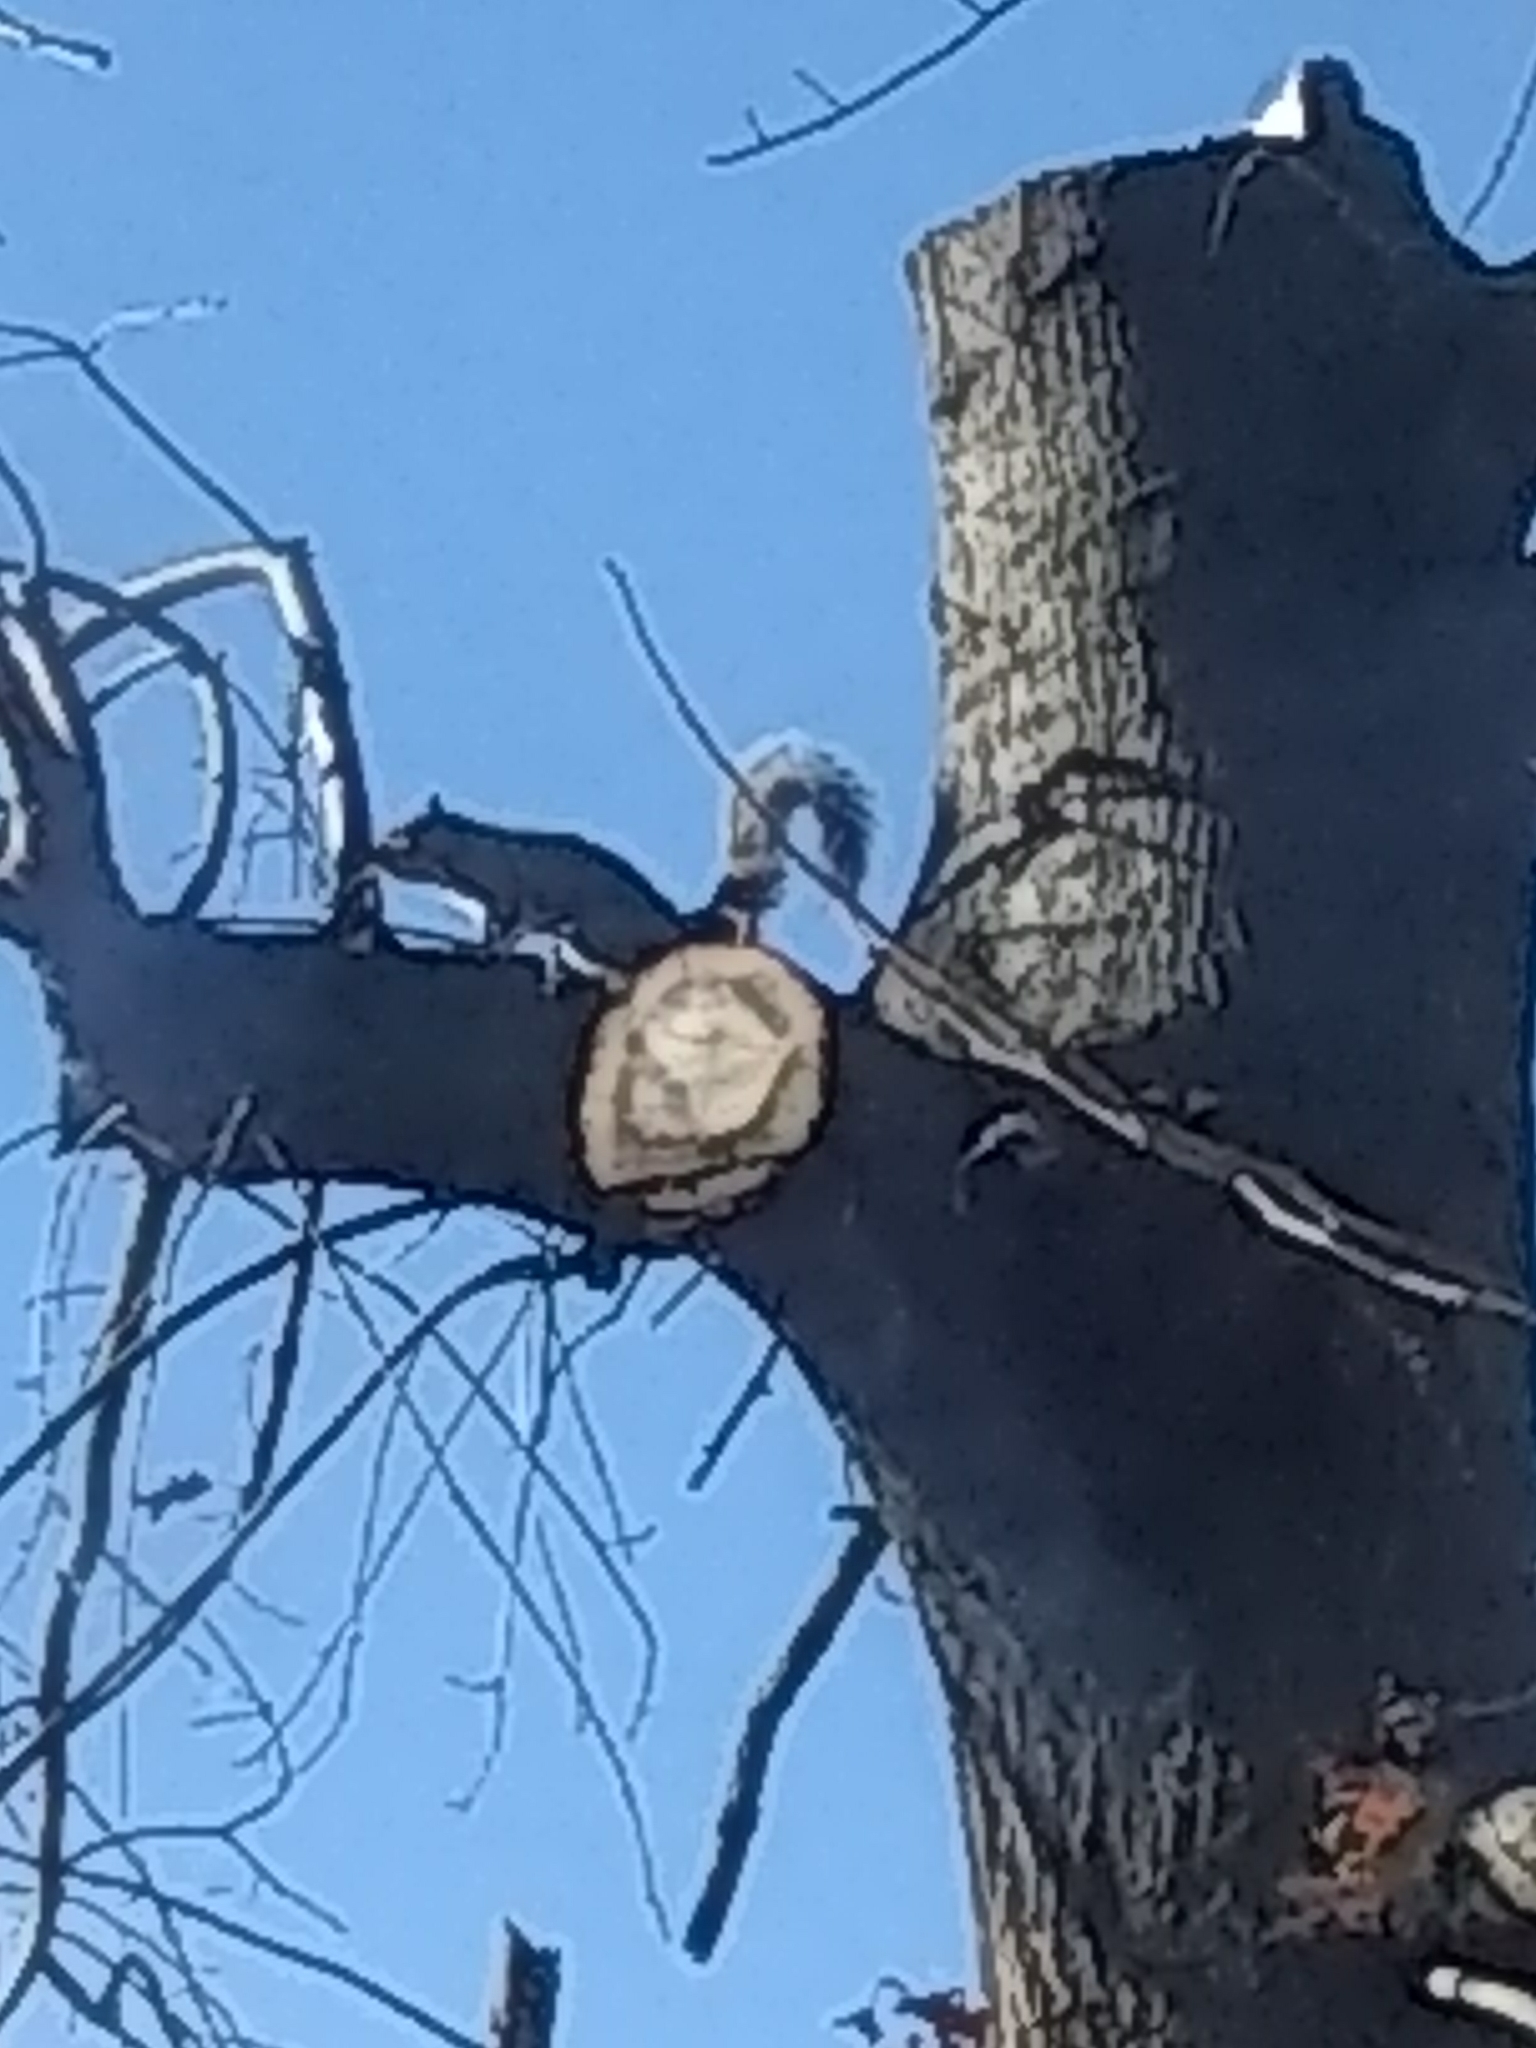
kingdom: Animalia
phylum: Chordata
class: Mammalia
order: Rodentia
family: Sciuridae
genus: Sciurus
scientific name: Sciurus carolinensis
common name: Eastern gray squirrel
